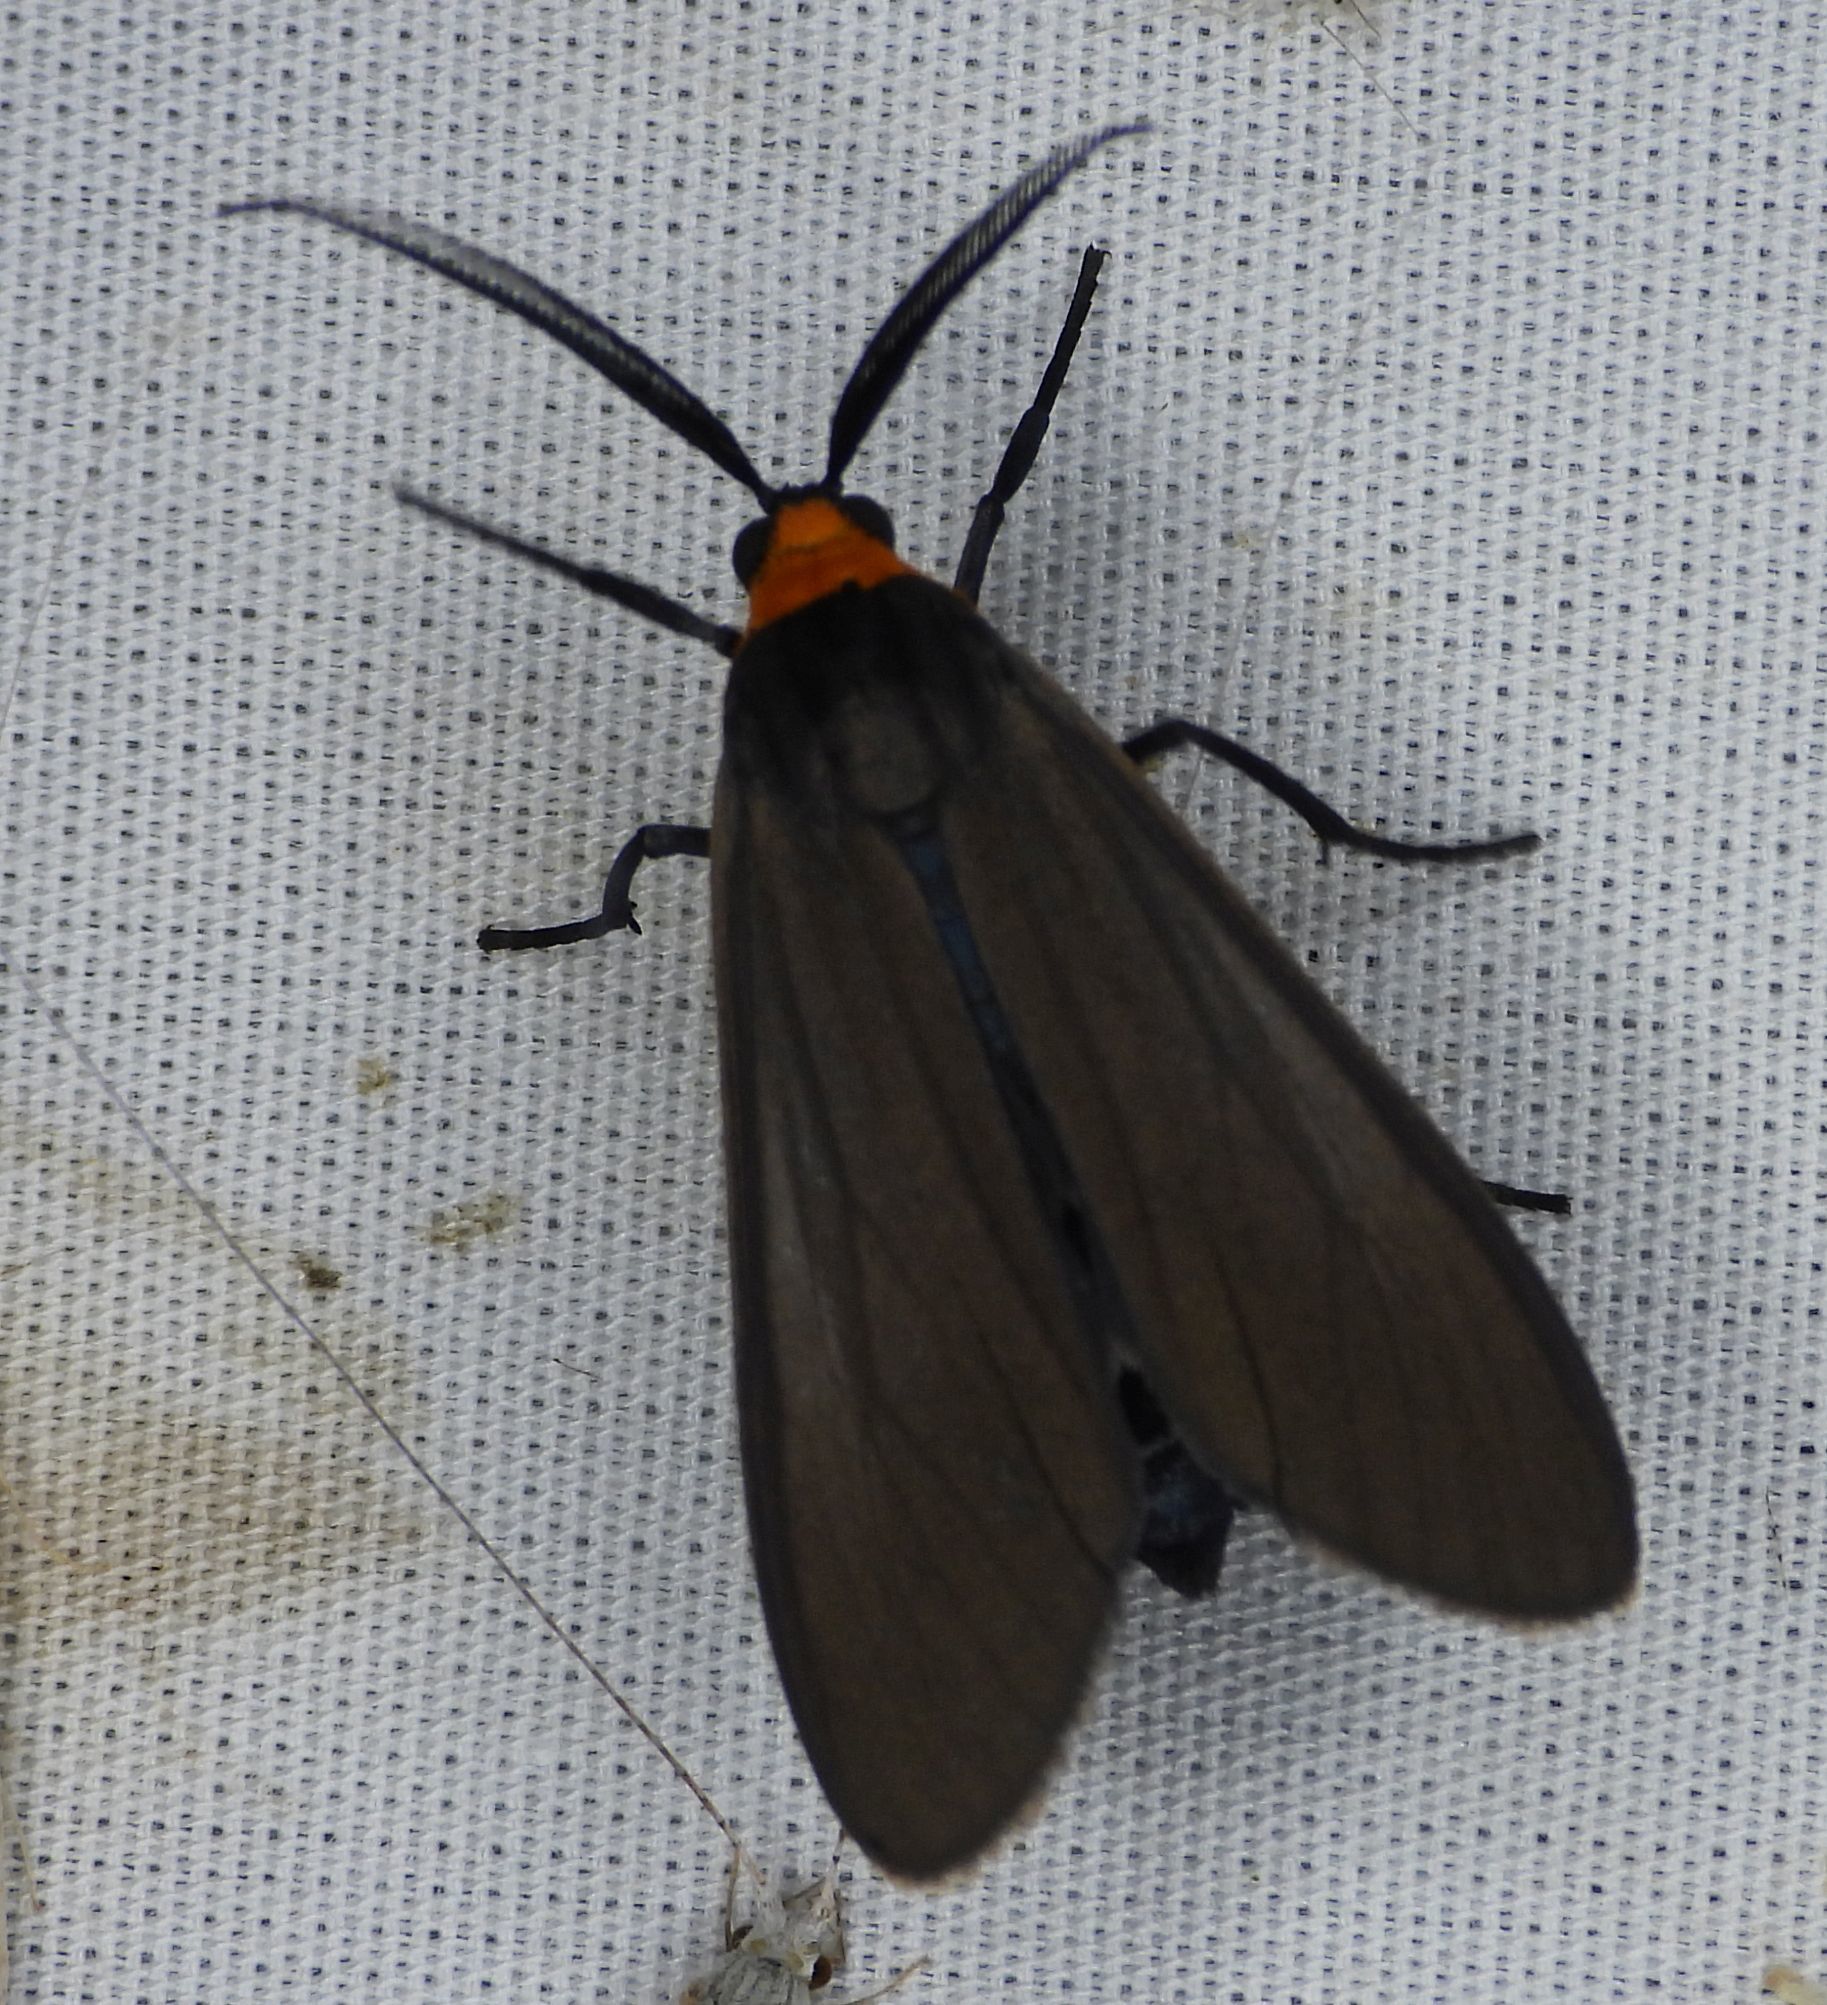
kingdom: Animalia
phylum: Arthropoda
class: Insecta
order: Lepidoptera
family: Erebidae
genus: Cisseps
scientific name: Cisseps fulvicollis
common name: Yellow-collared scape moth
